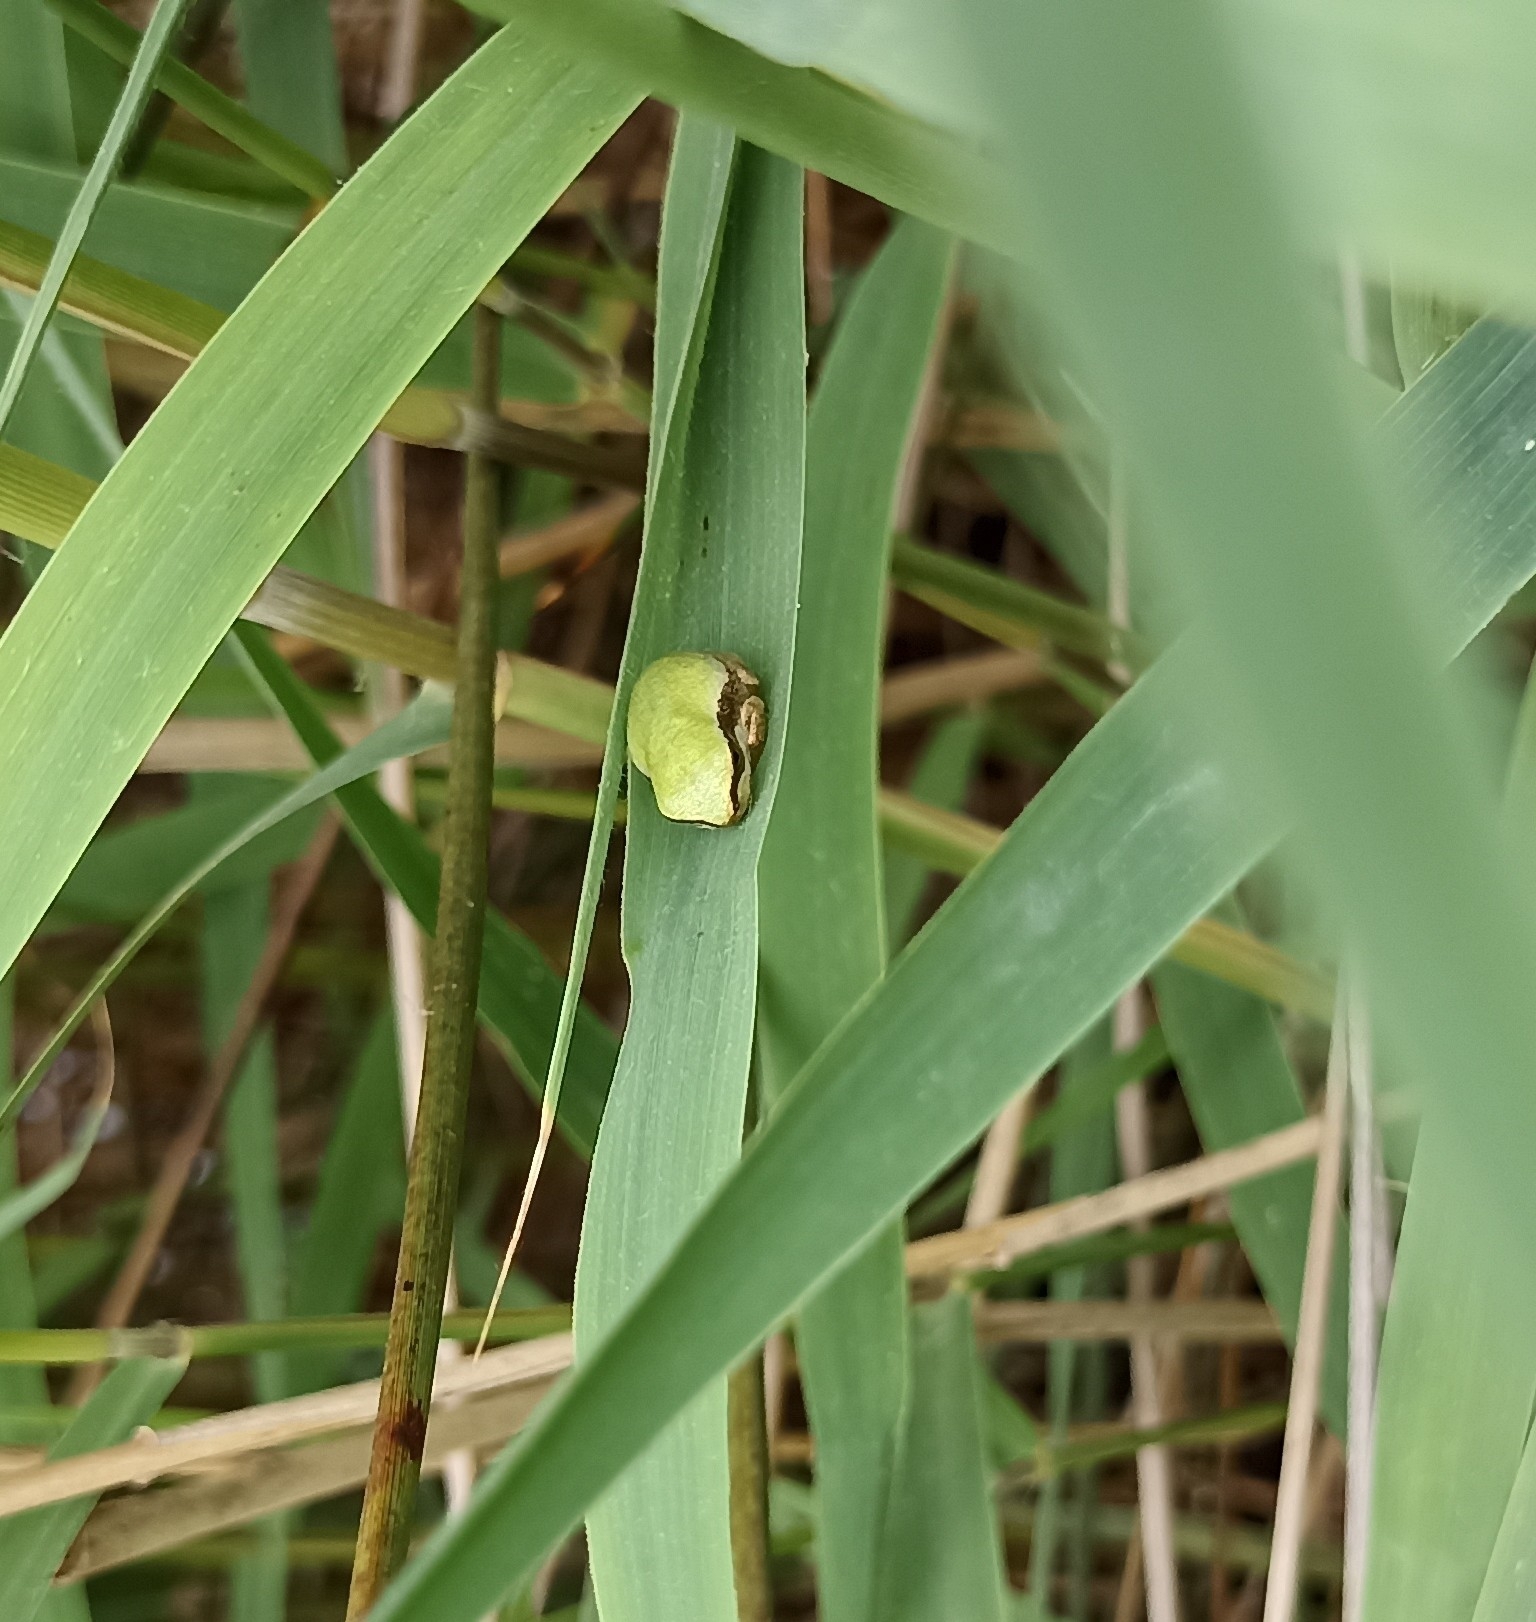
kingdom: Animalia
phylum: Chordata
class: Amphibia
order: Anura
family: Hylidae
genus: Hyla
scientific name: Hyla meridionalis
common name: Stripeless tree frog
